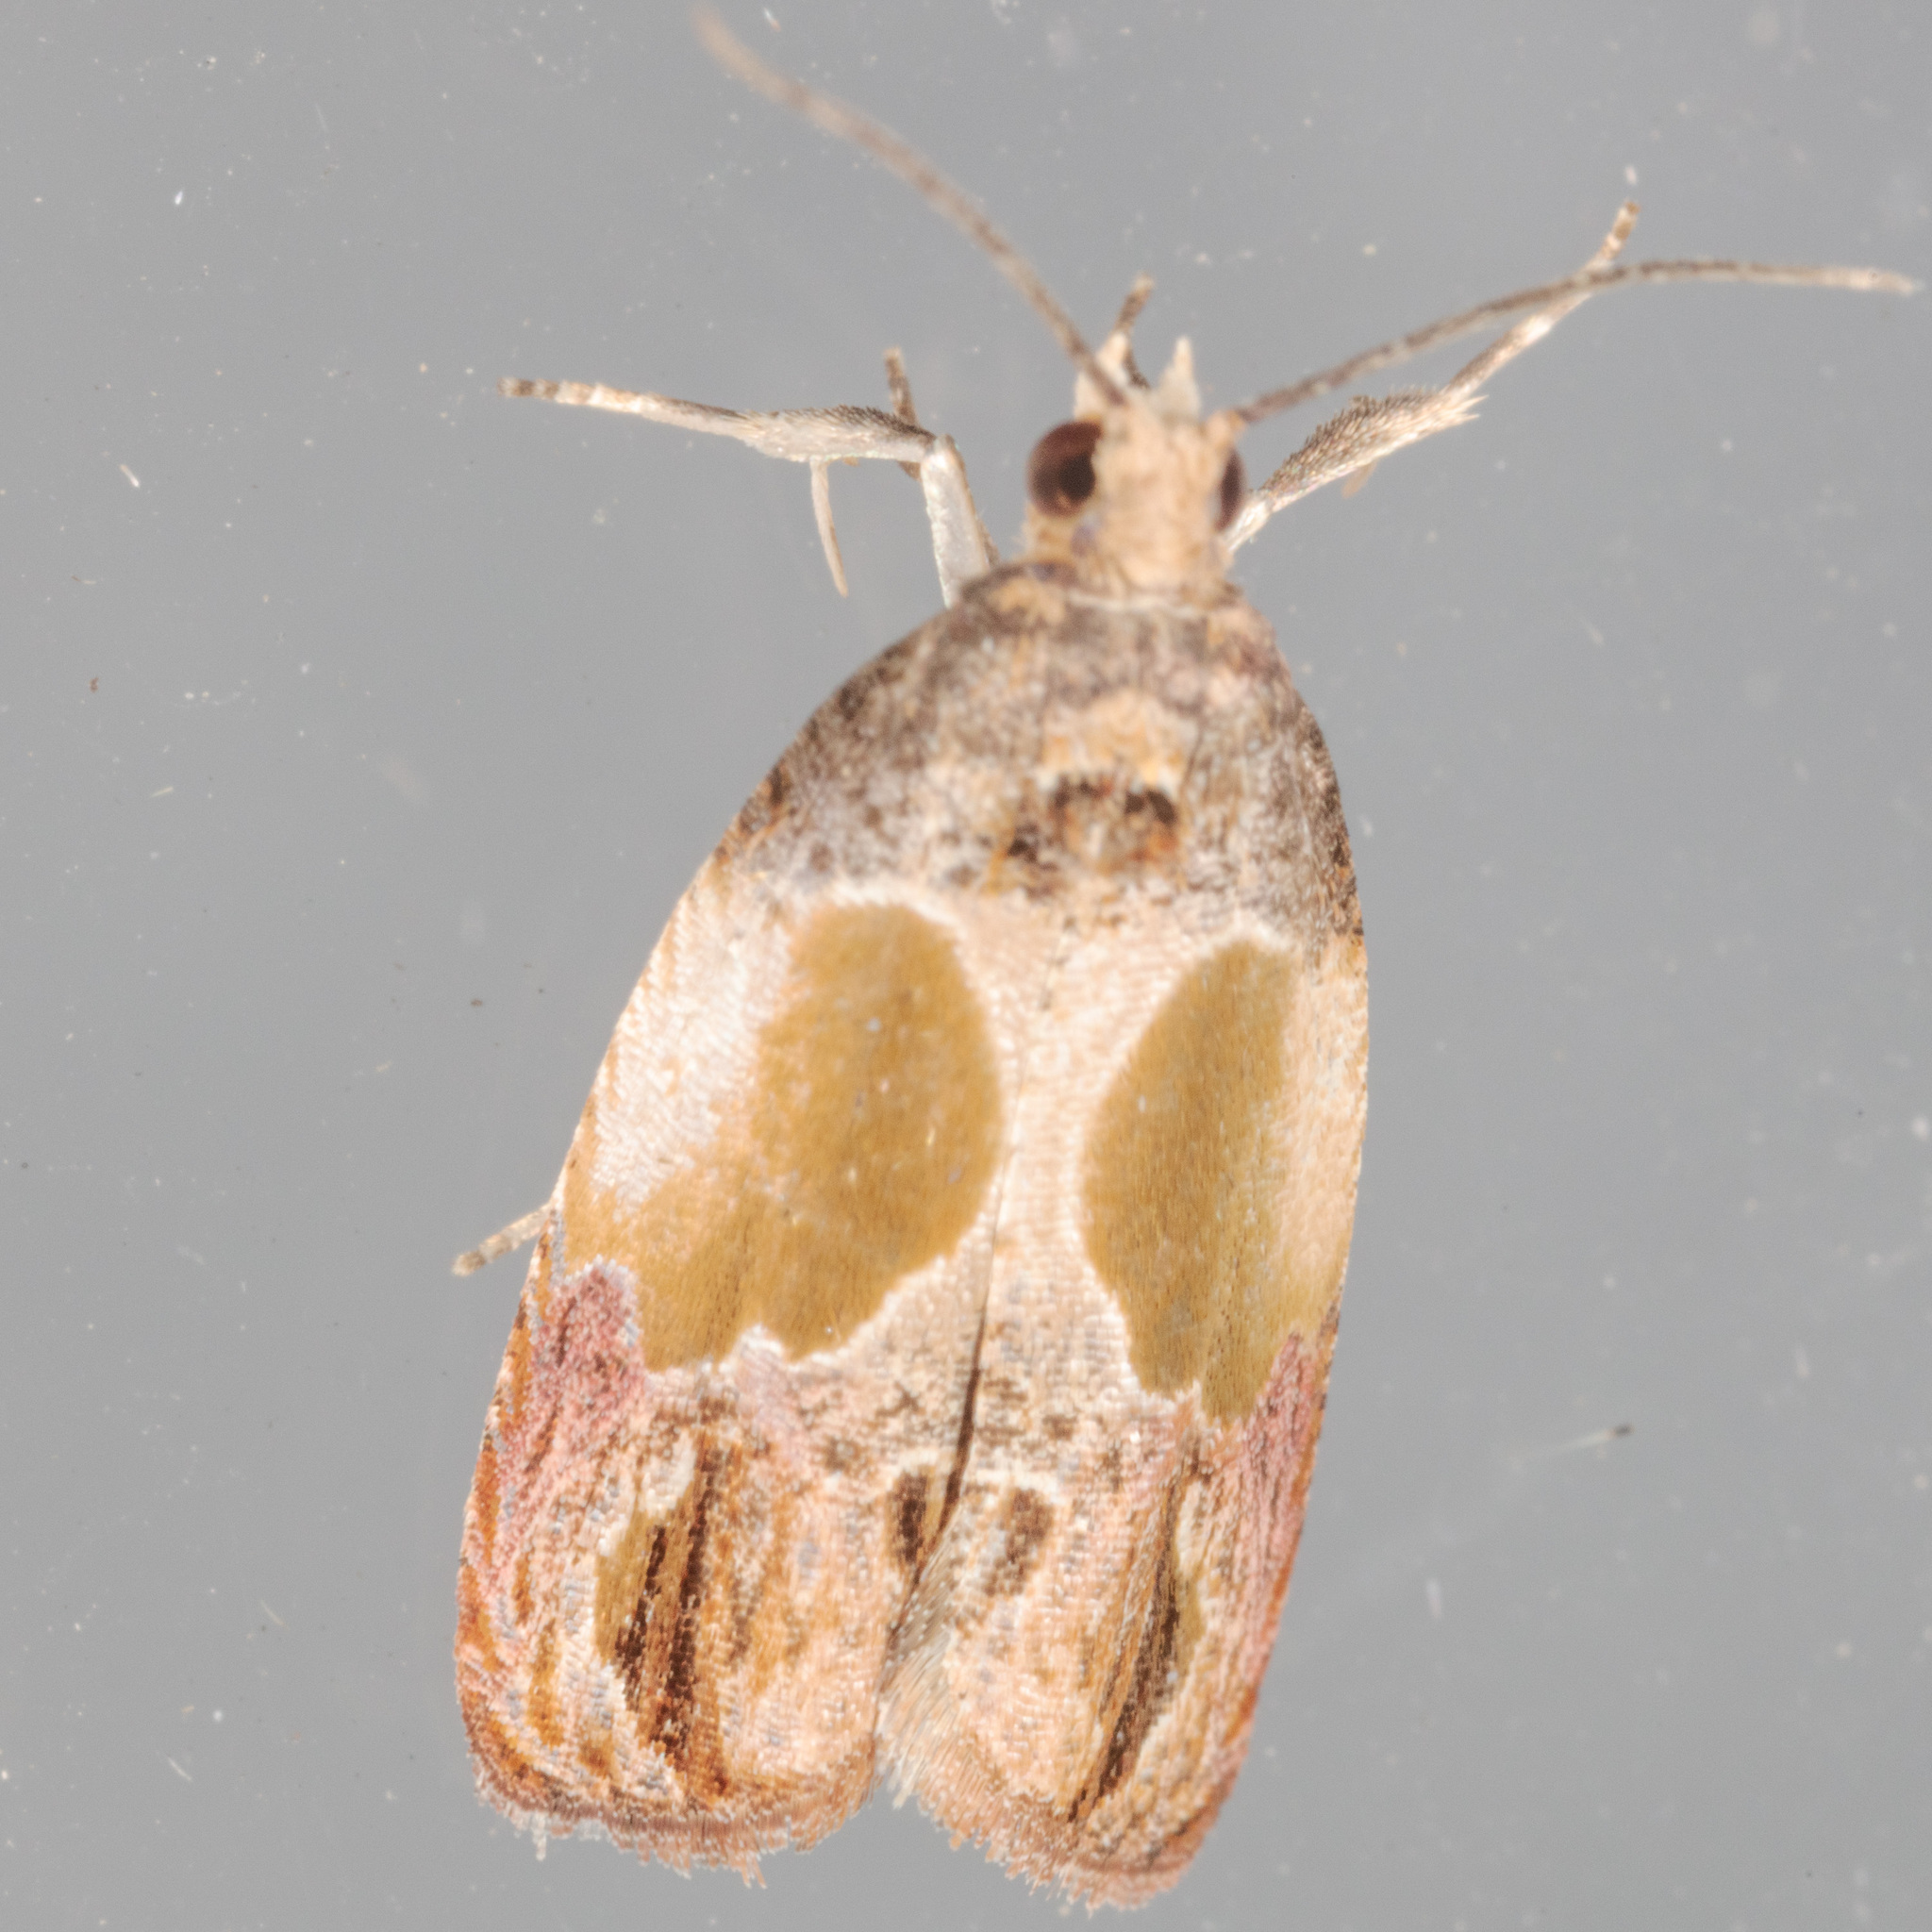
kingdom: Animalia
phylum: Arthropoda
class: Insecta
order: Lepidoptera
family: Tortricidae
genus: Eumarozia
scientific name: Eumarozia malachitana
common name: Sculptured moth
